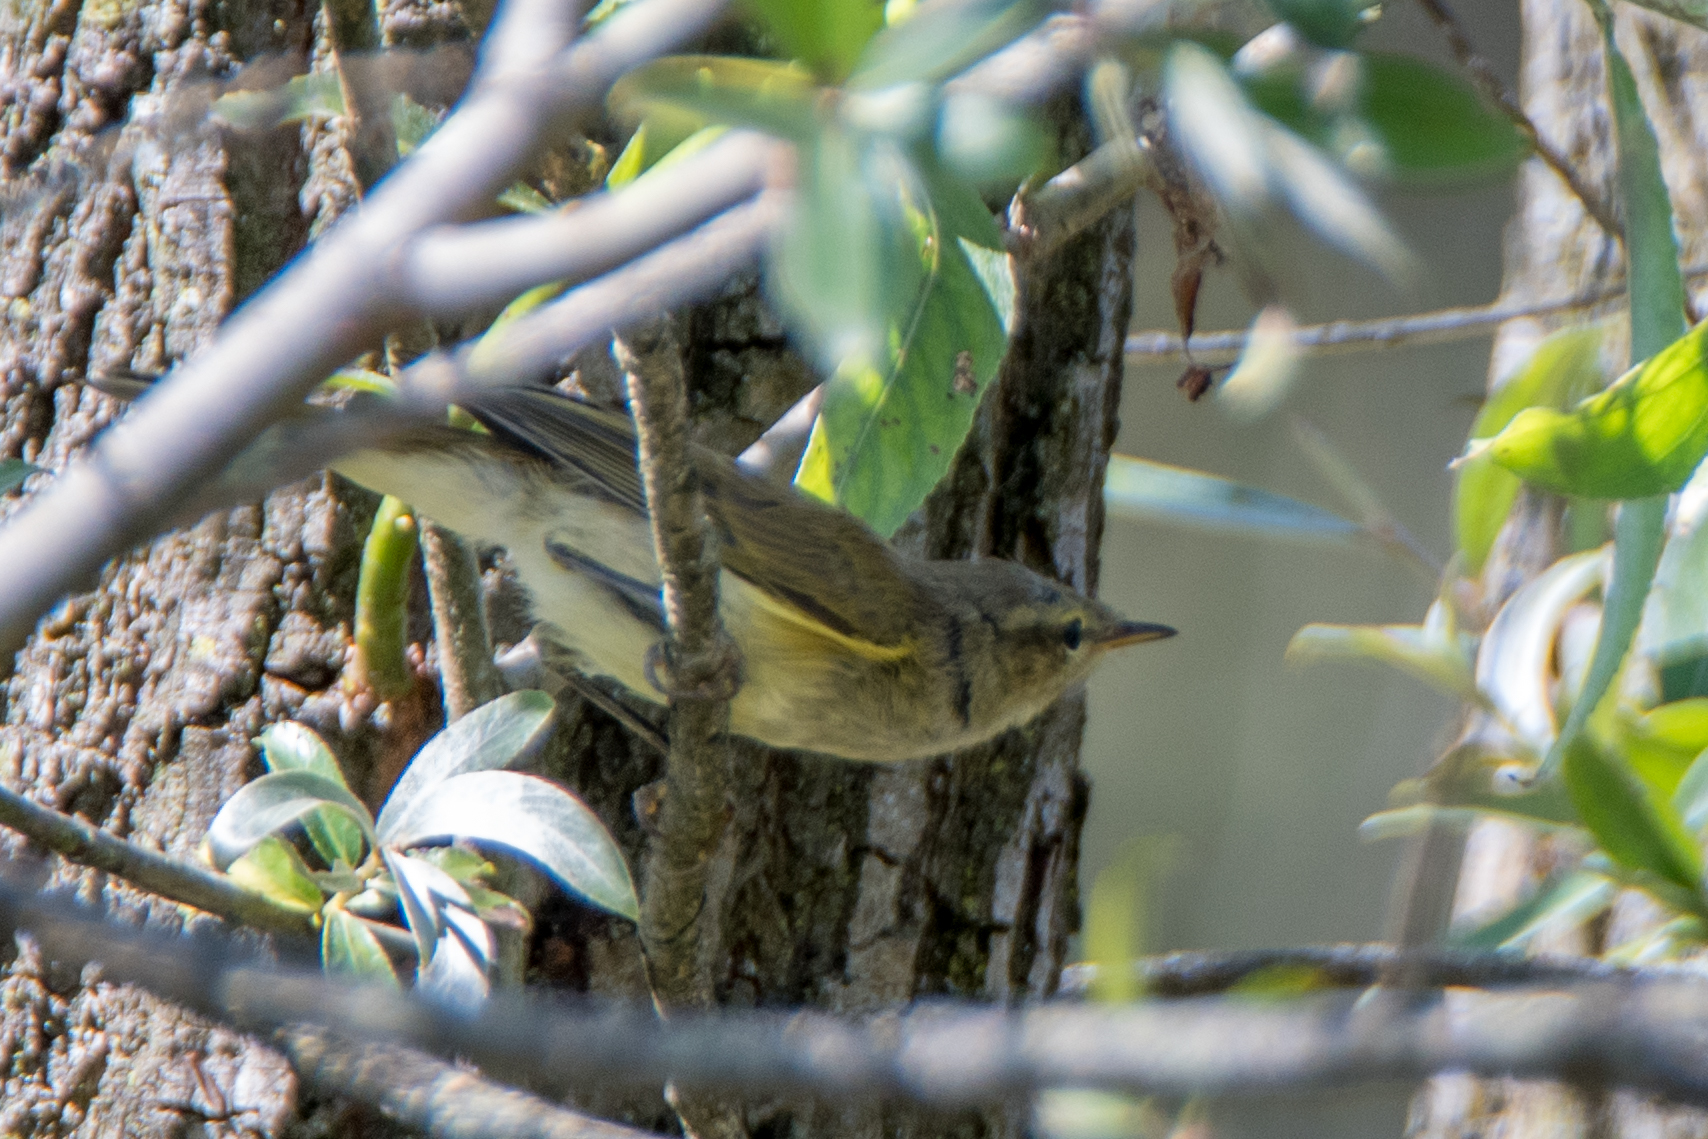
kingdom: Animalia
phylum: Chordata
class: Aves
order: Passeriformes
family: Phylloscopidae
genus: Phylloscopus
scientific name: Phylloscopus collybita
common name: Common chiffchaff
